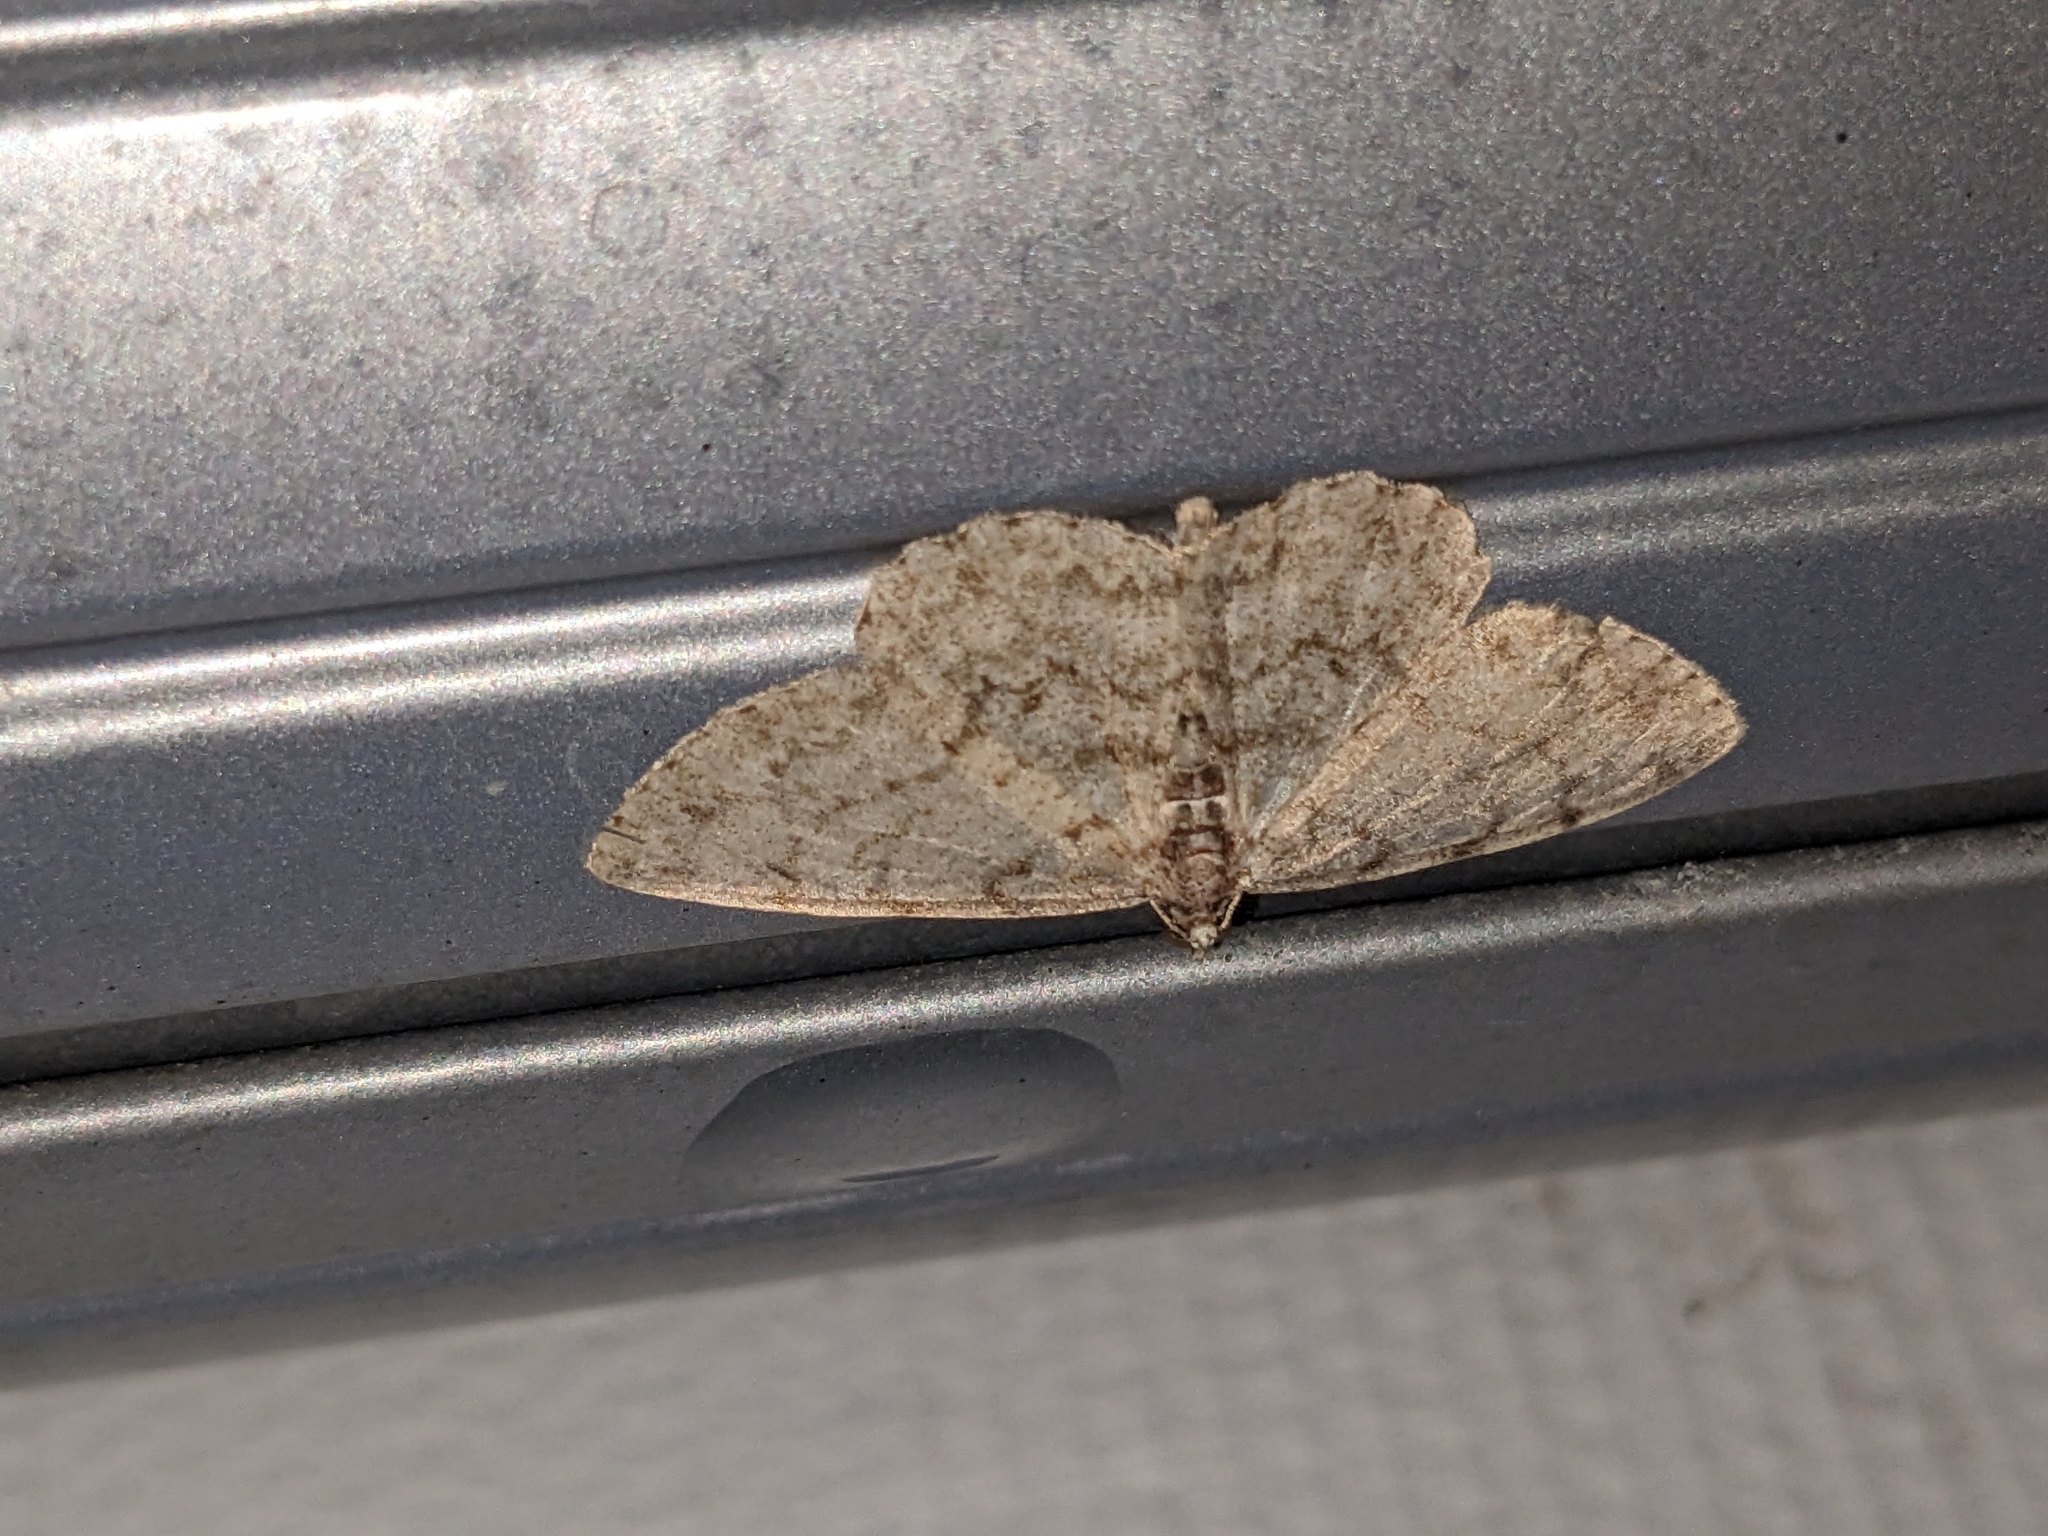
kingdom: Animalia
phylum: Arthropoda
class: Insecta
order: Lepidoptera
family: Geometridae
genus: Protoboarmia
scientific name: Protoboarmia porcelaria
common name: Porcelain gray
